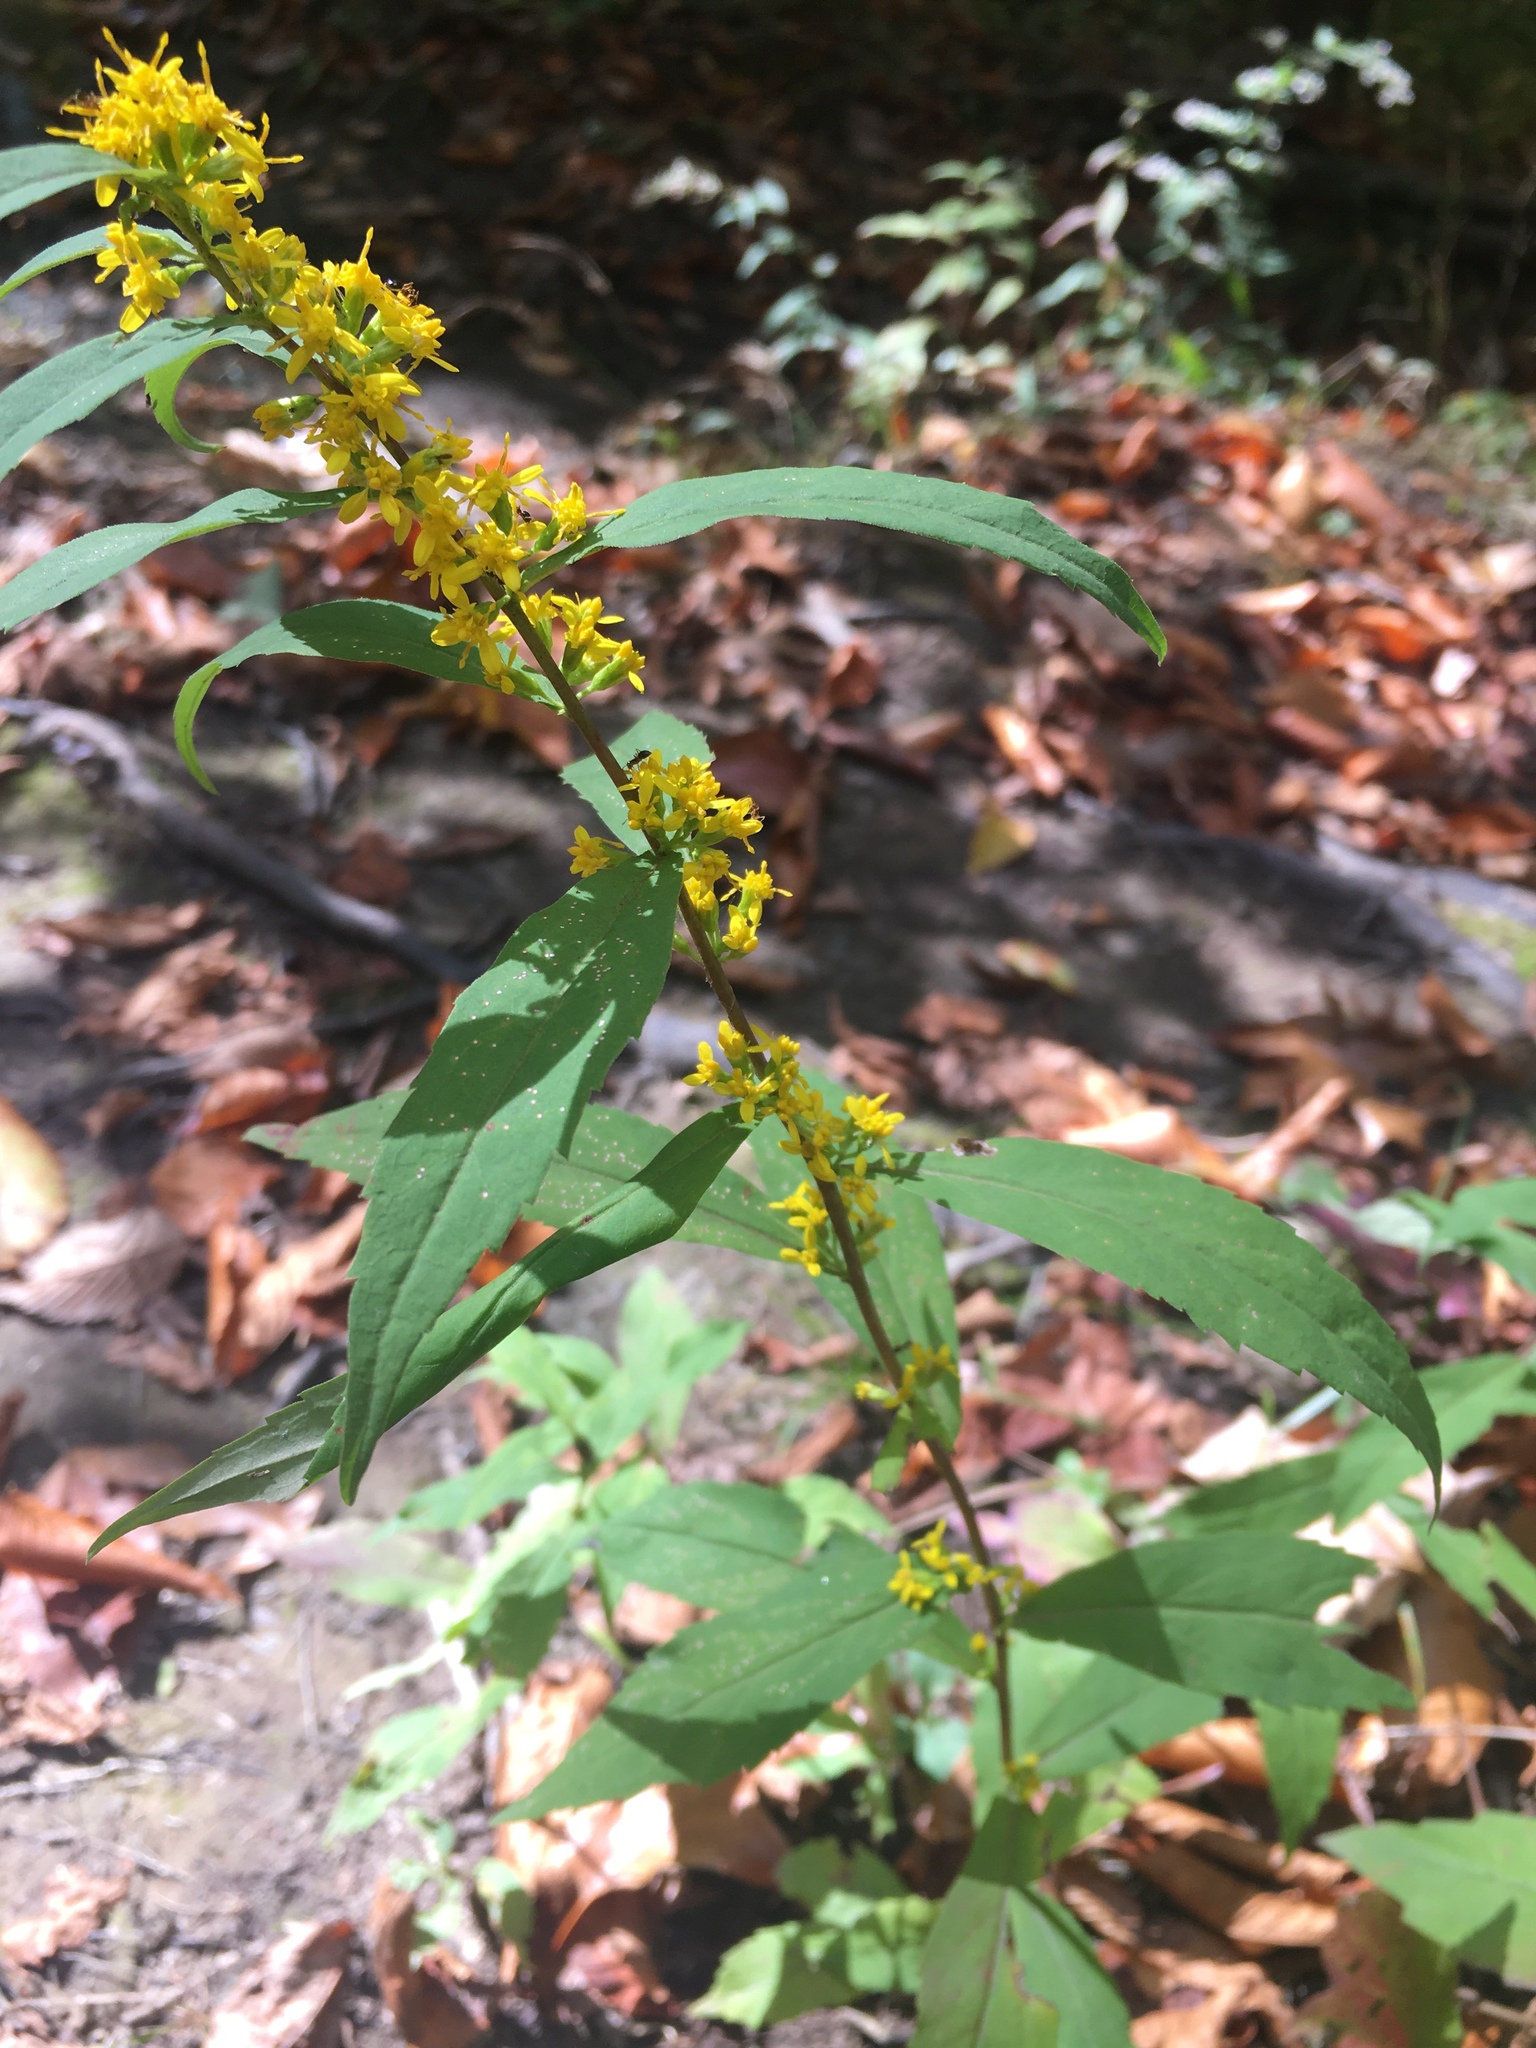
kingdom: Plantae
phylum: Tracheophyta
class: Magnoliopsida
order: Asterales
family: Asteraceae
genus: Solidago
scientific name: Solidago caesia
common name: Woodland goldenrod
